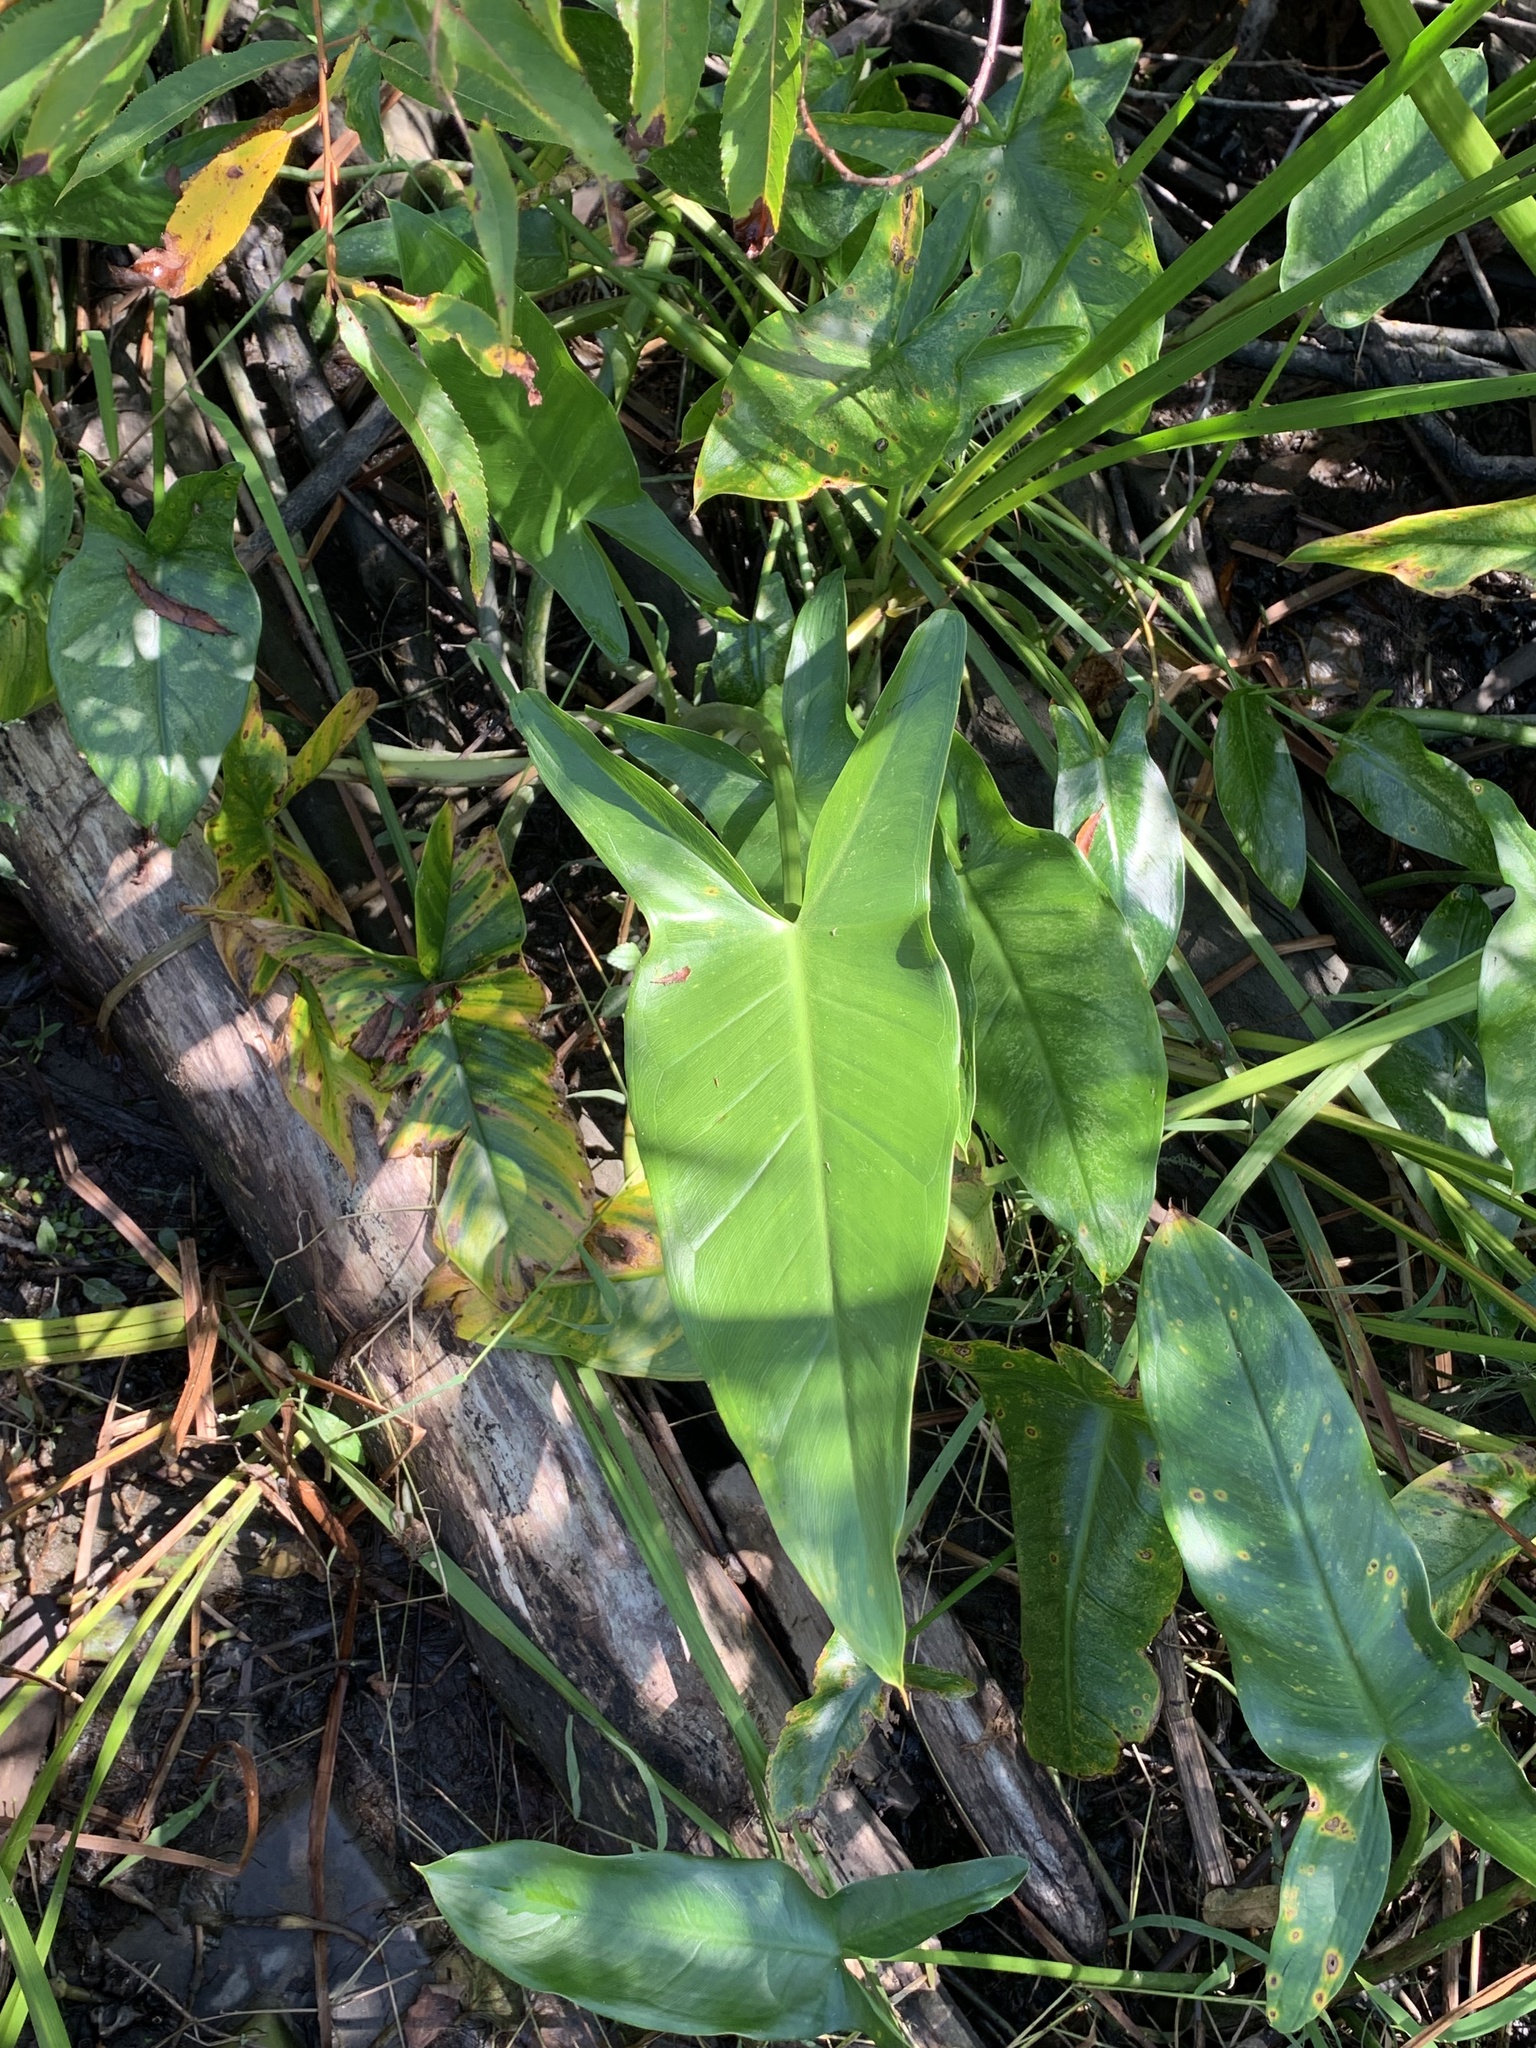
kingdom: Plantae
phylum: Tracheophyta
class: Liliopsida
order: Alismatales
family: Araceae
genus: Peltandra
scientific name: Peltandra virginica
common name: Arrow arum
